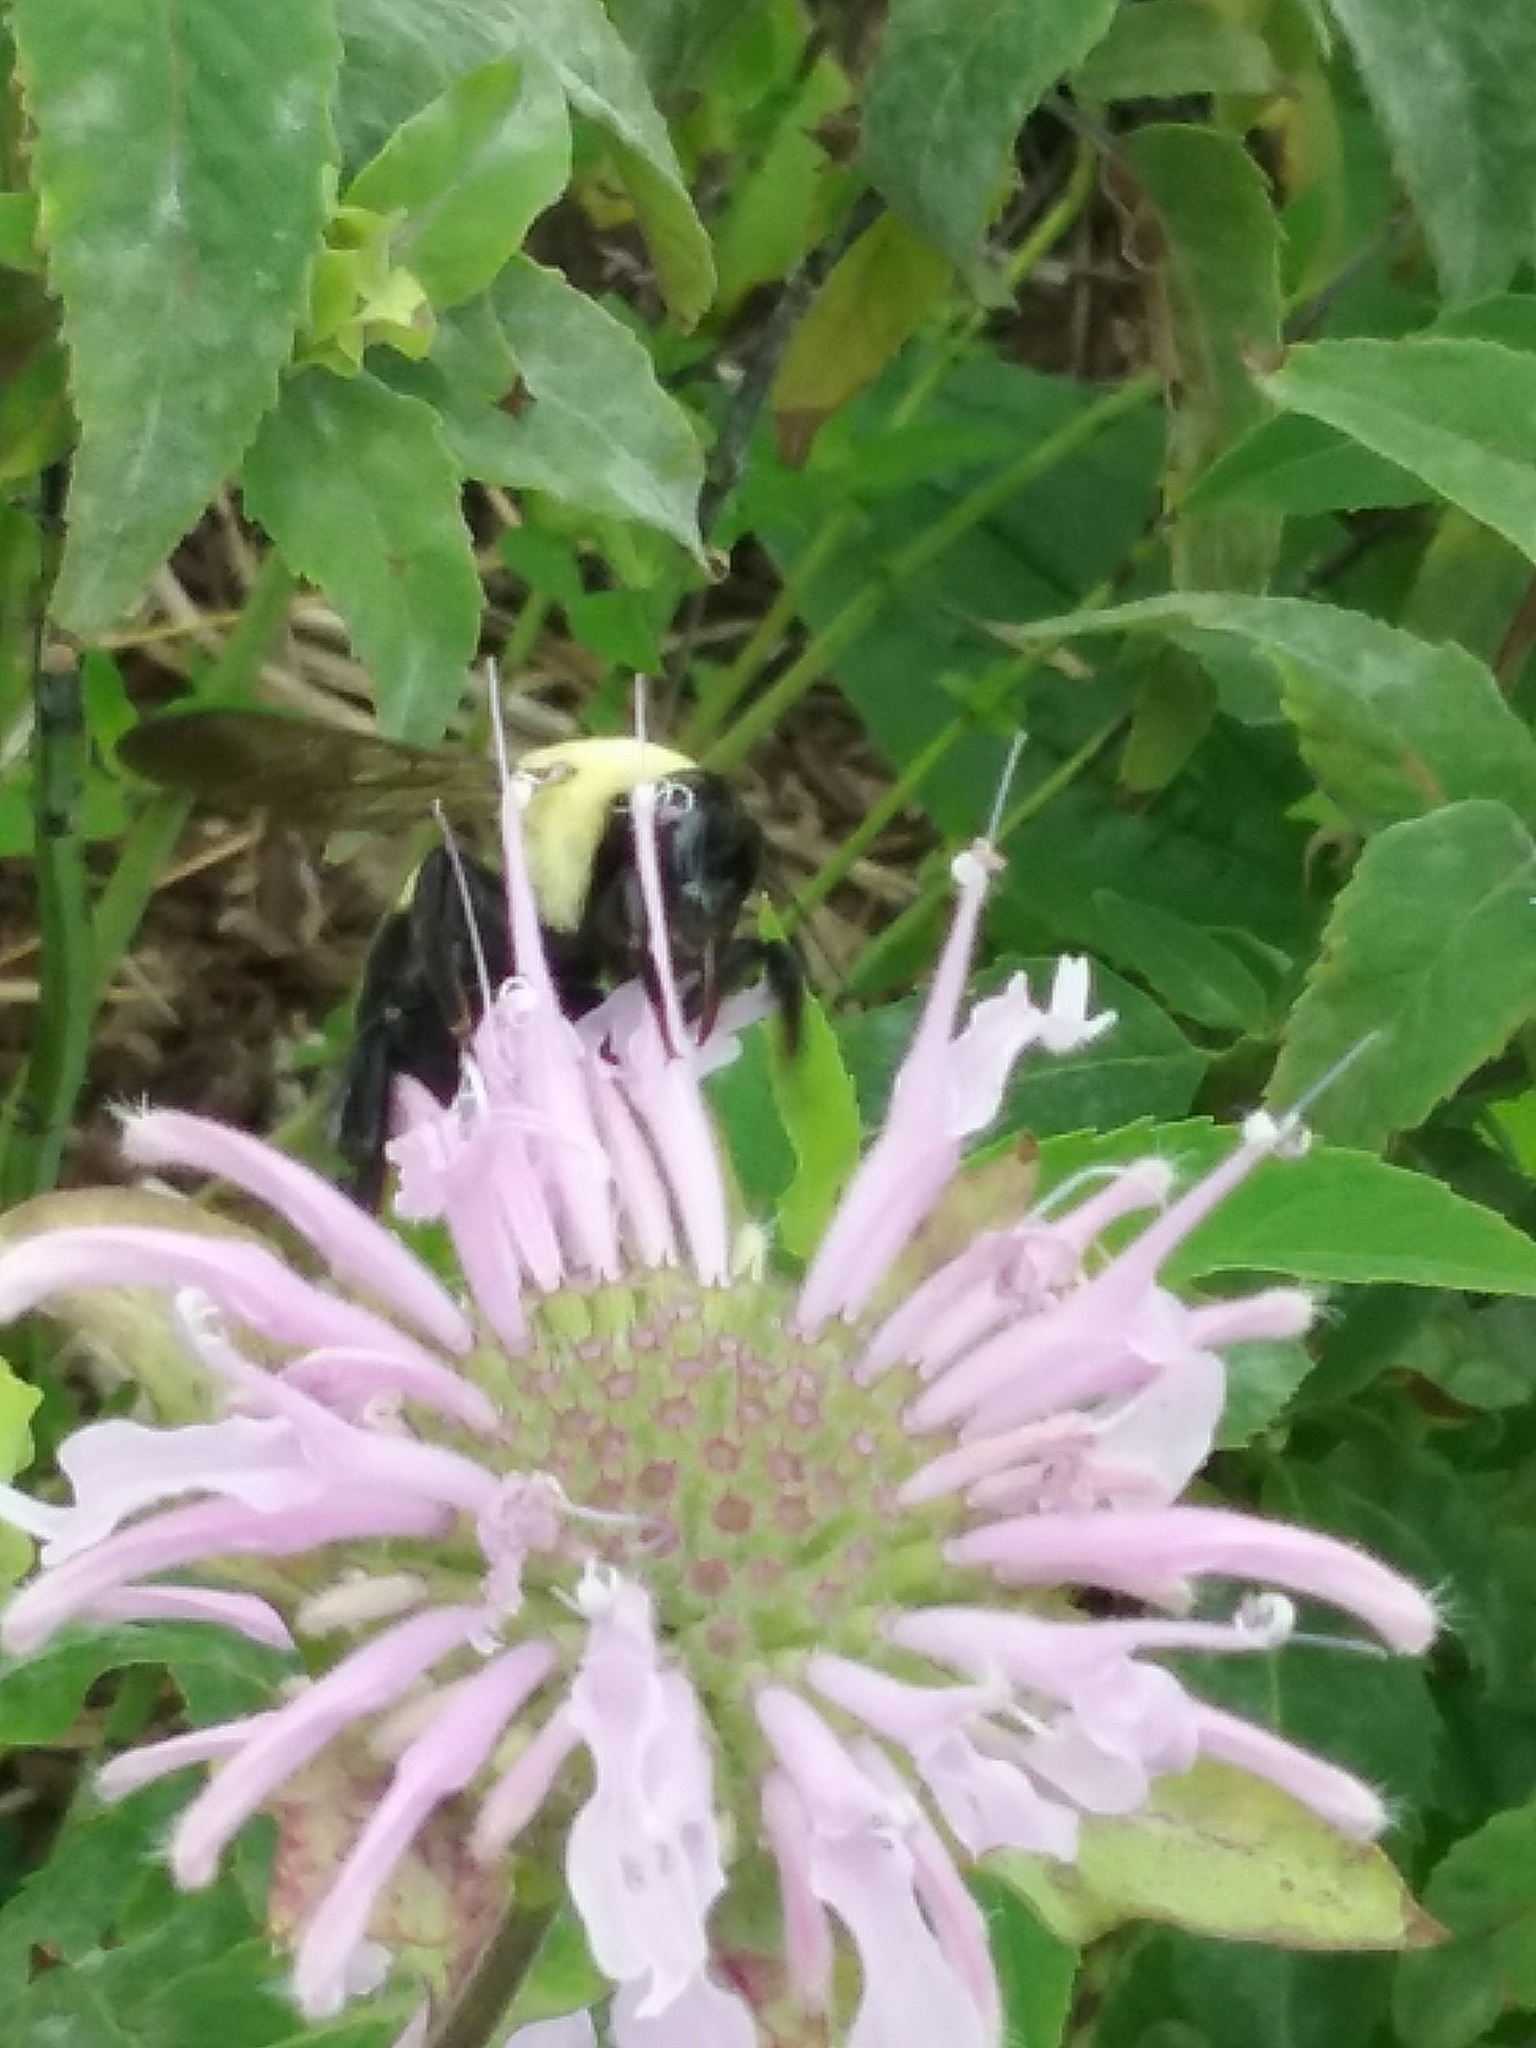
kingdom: Animalia
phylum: Arthropoda
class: Insecta
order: Hymenoptera
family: Apidae
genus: Bombus
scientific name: Bombus griseocollis
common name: Brown-belted bumble bee
